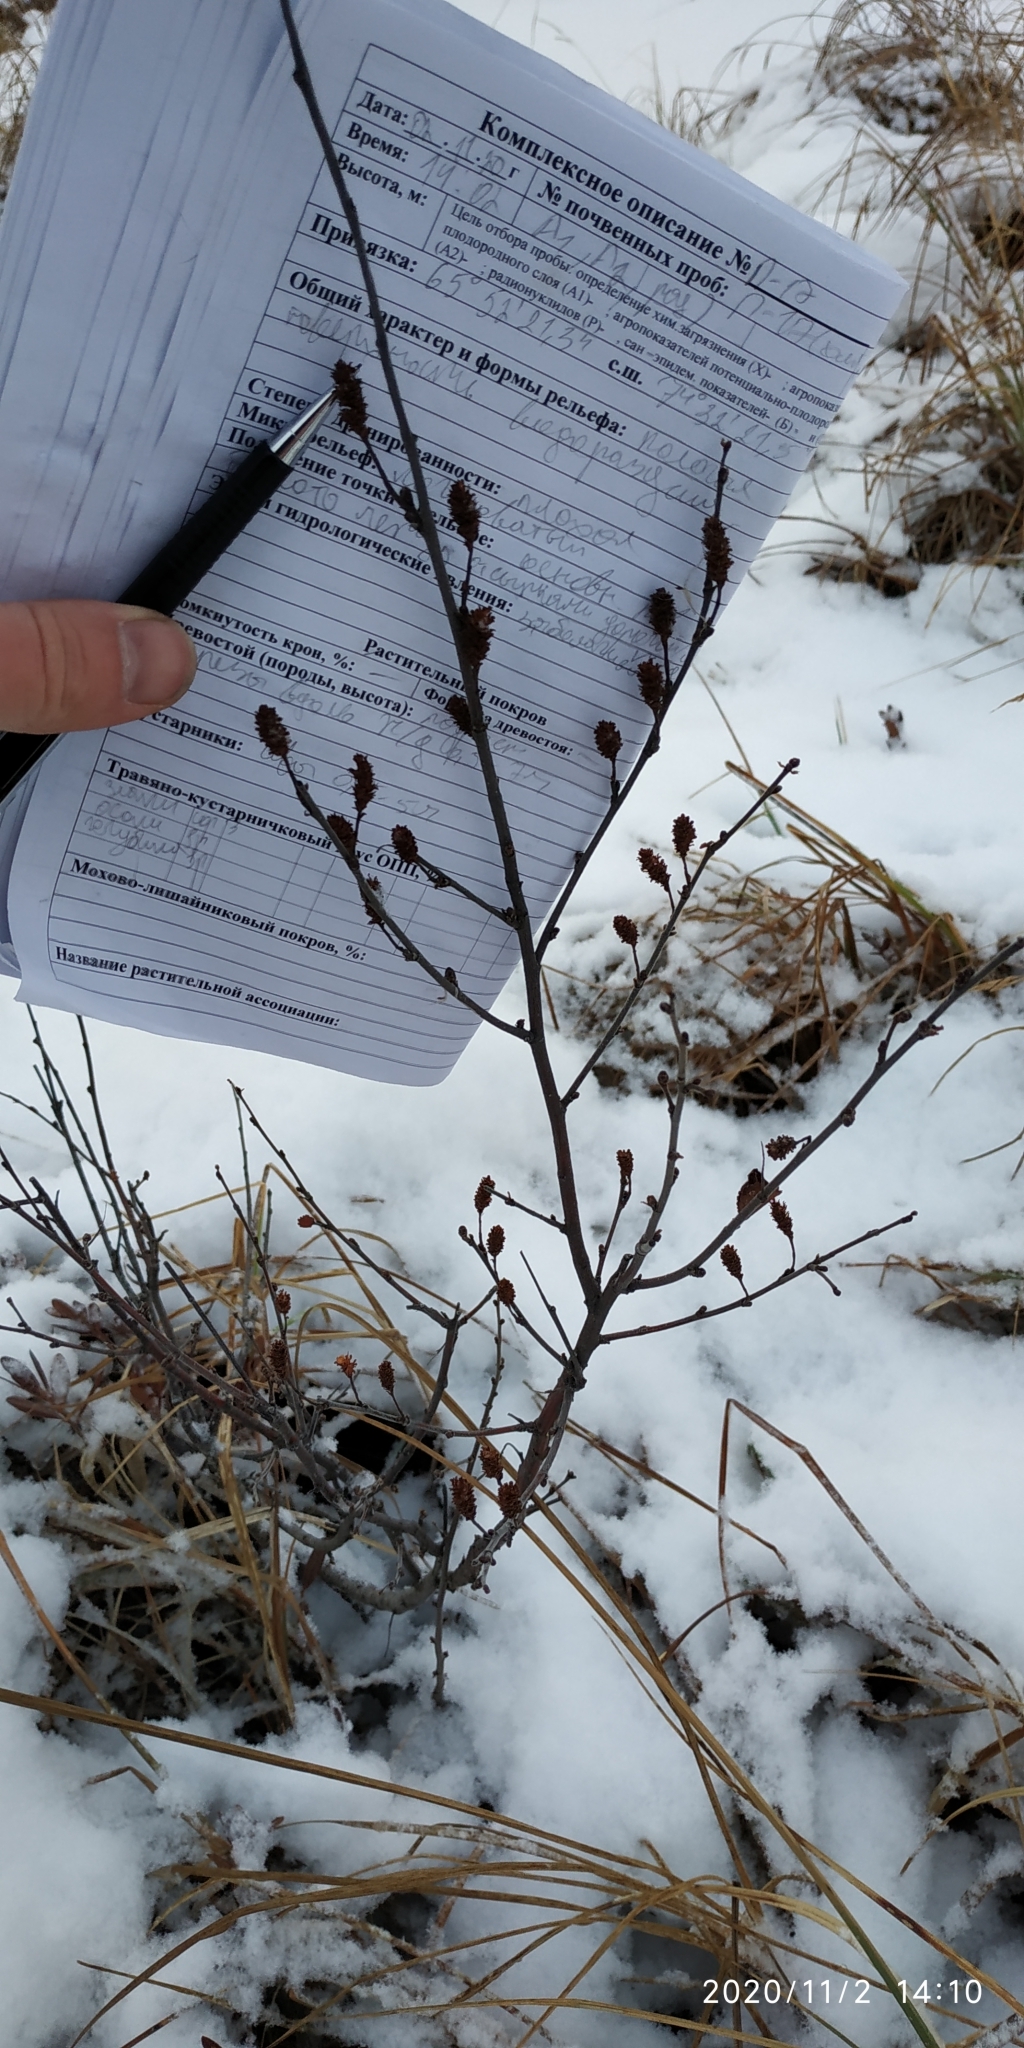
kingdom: Plantae
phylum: Tracheophyta
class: Magnoliopsida
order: Fagales
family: Betulaceae
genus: Betula
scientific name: Betula nana
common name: Arctic dwarf birch
